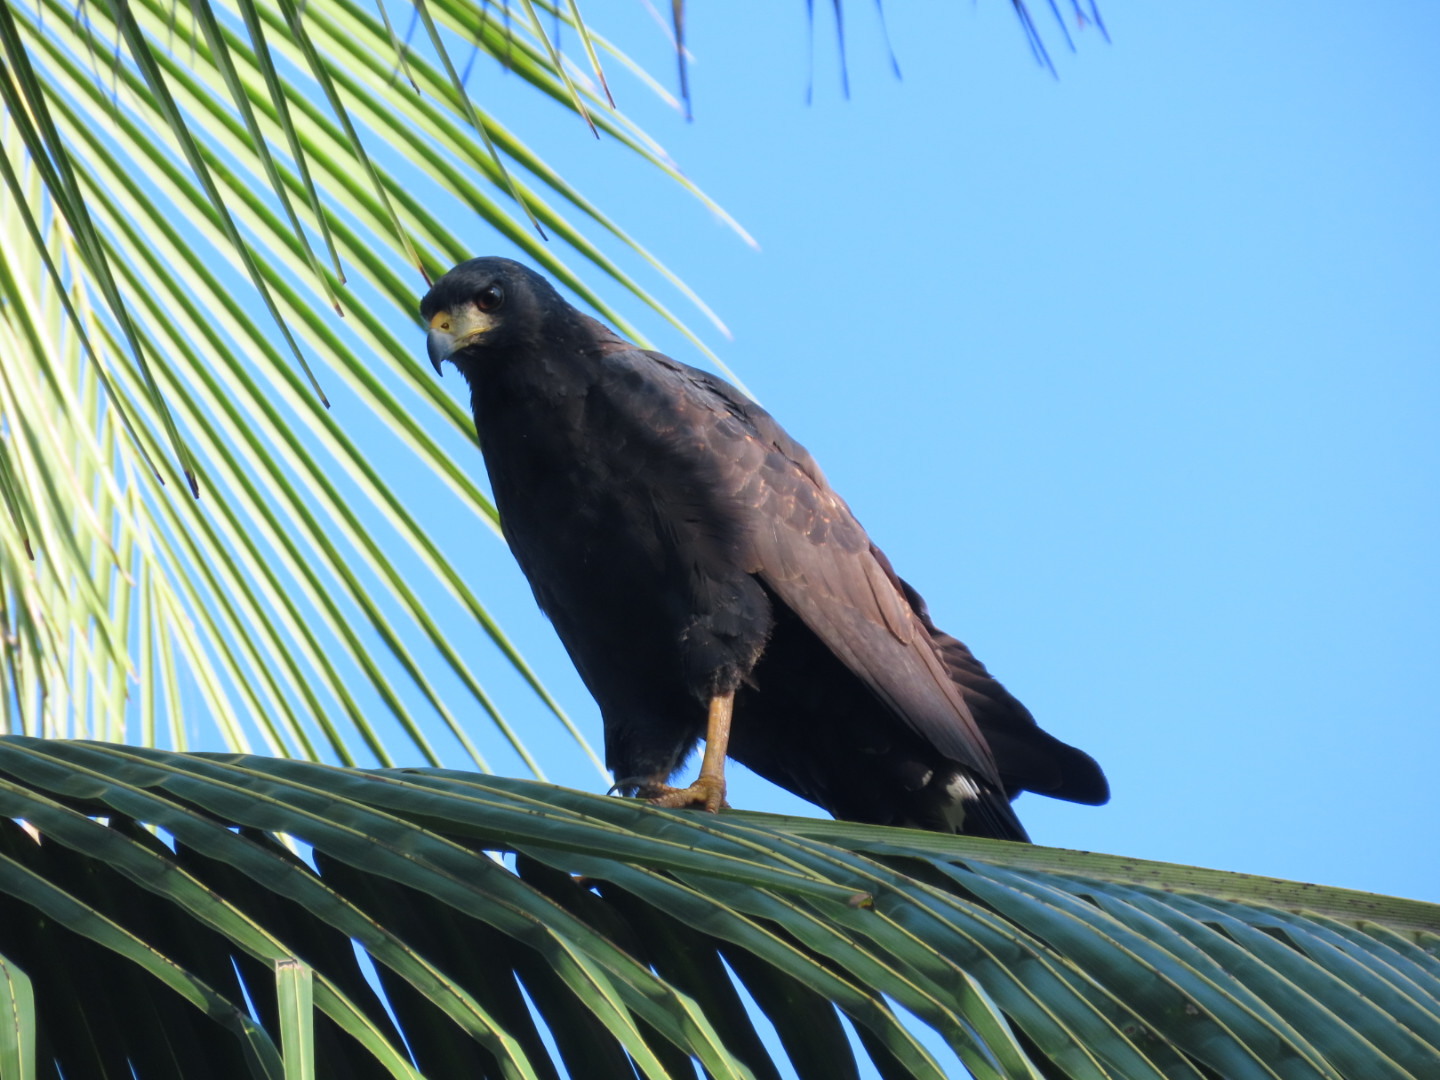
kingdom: Animalia
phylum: Chordata
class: Aves
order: Accipitriformes
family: Accipitridae
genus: Buteogallus
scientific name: Buteogallus anthracinus
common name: Common black hawk
